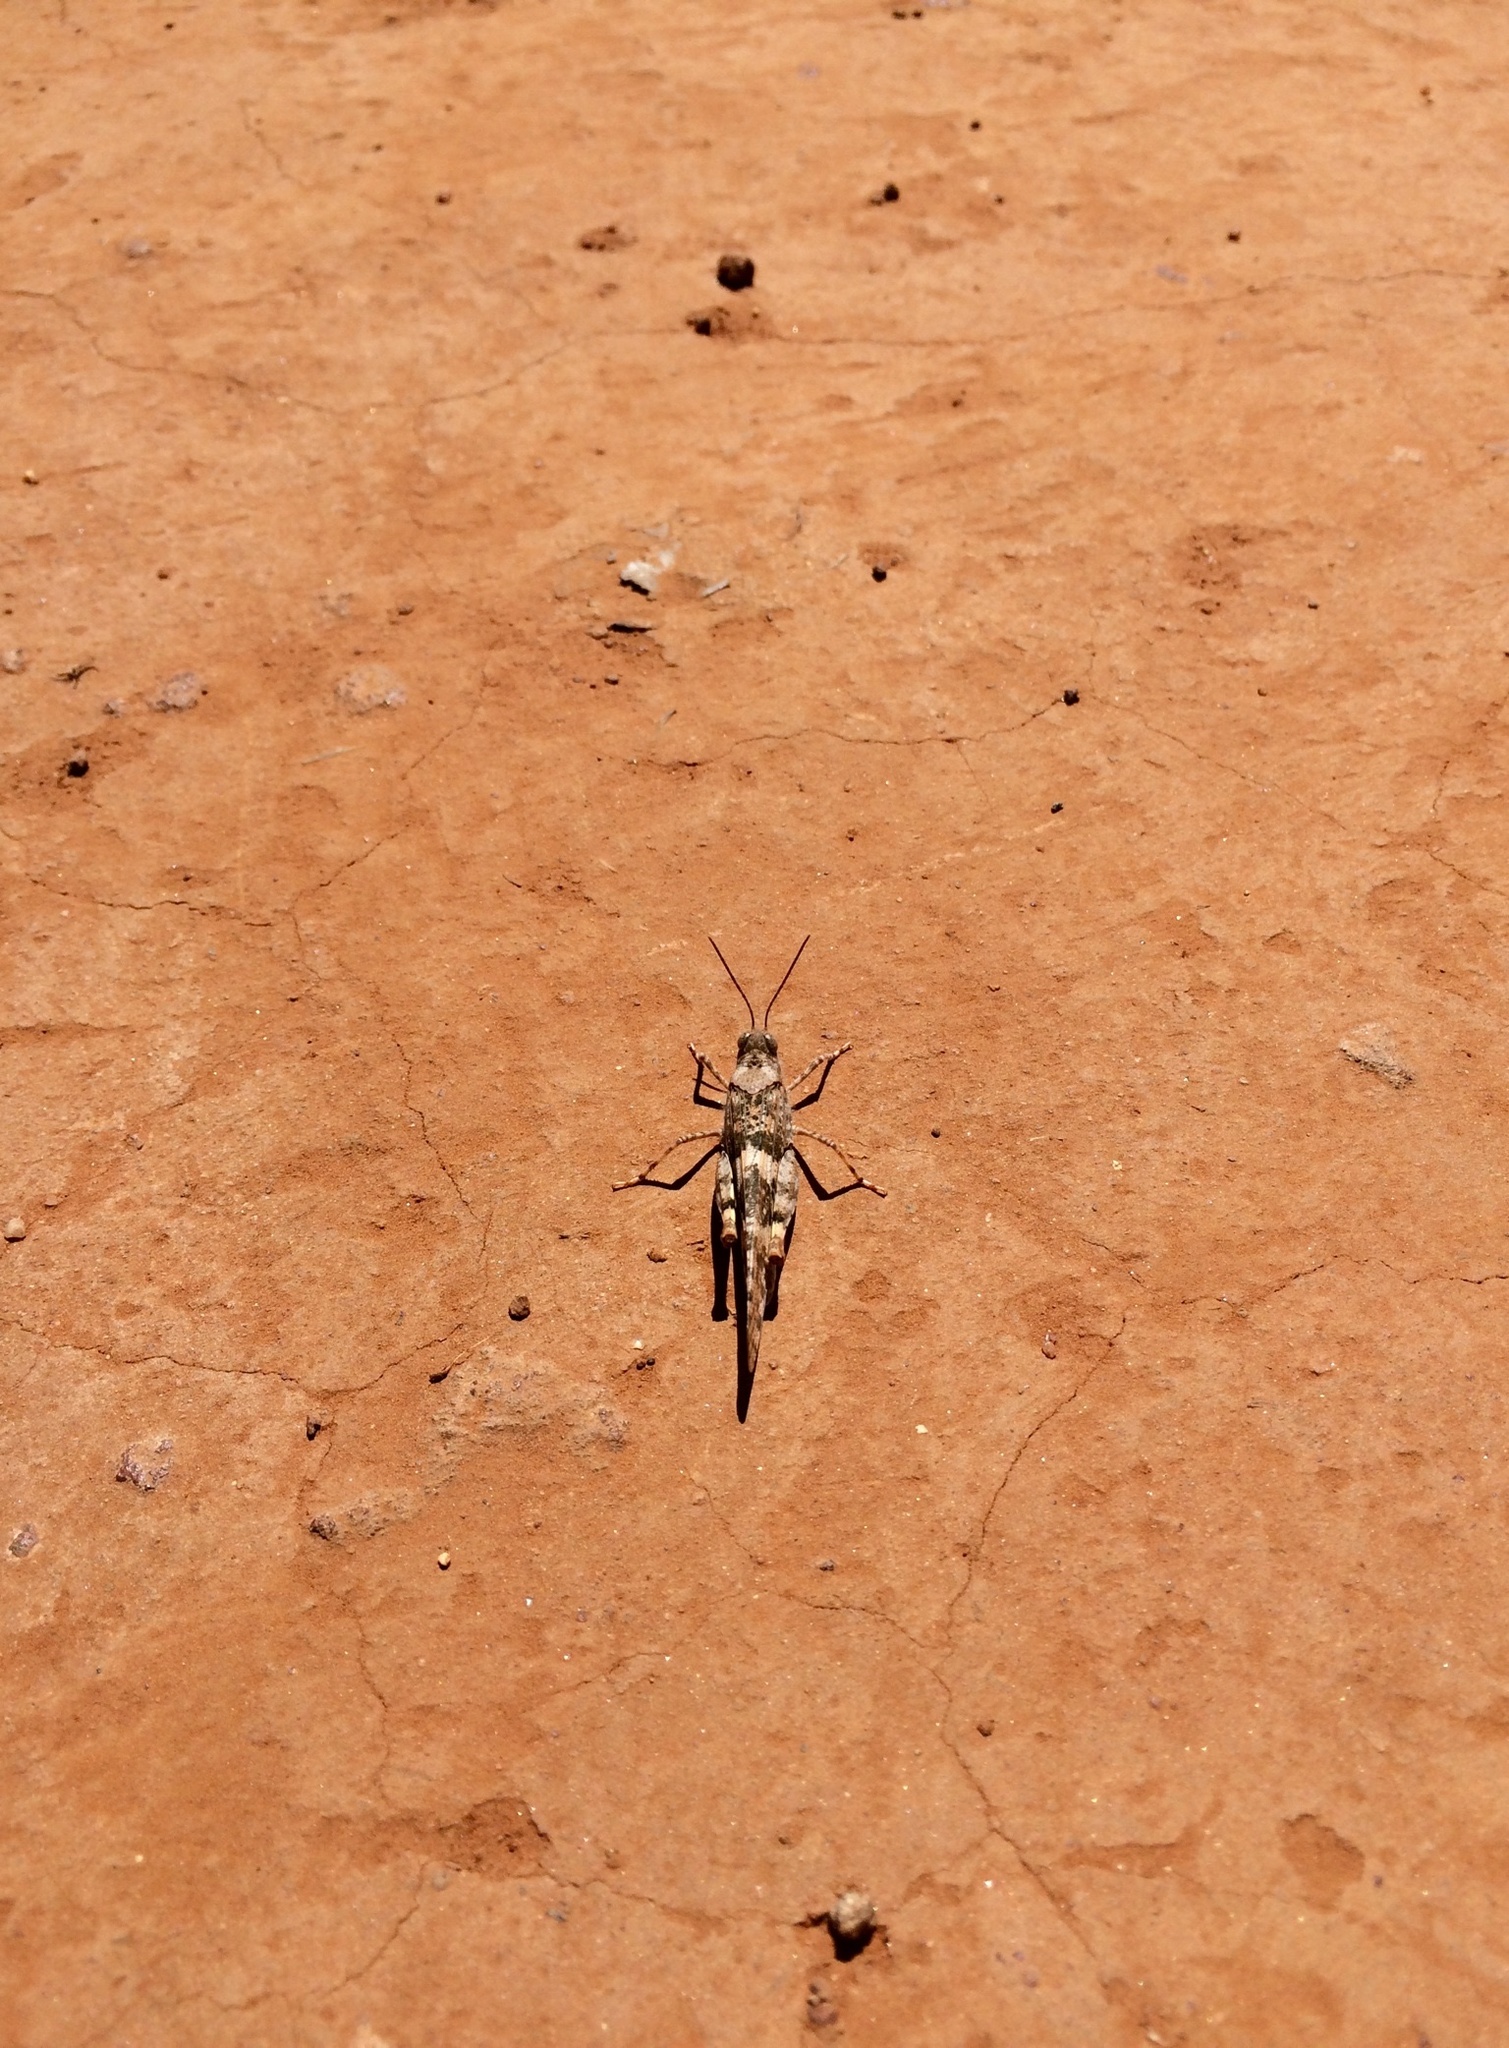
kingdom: Animalia
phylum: Arthropoda
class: Insecta
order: Orthoptera
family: Acrididae
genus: Trimerotropis
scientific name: Trimerotropis pallidipennis
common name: Pallid-winged grasshopper
